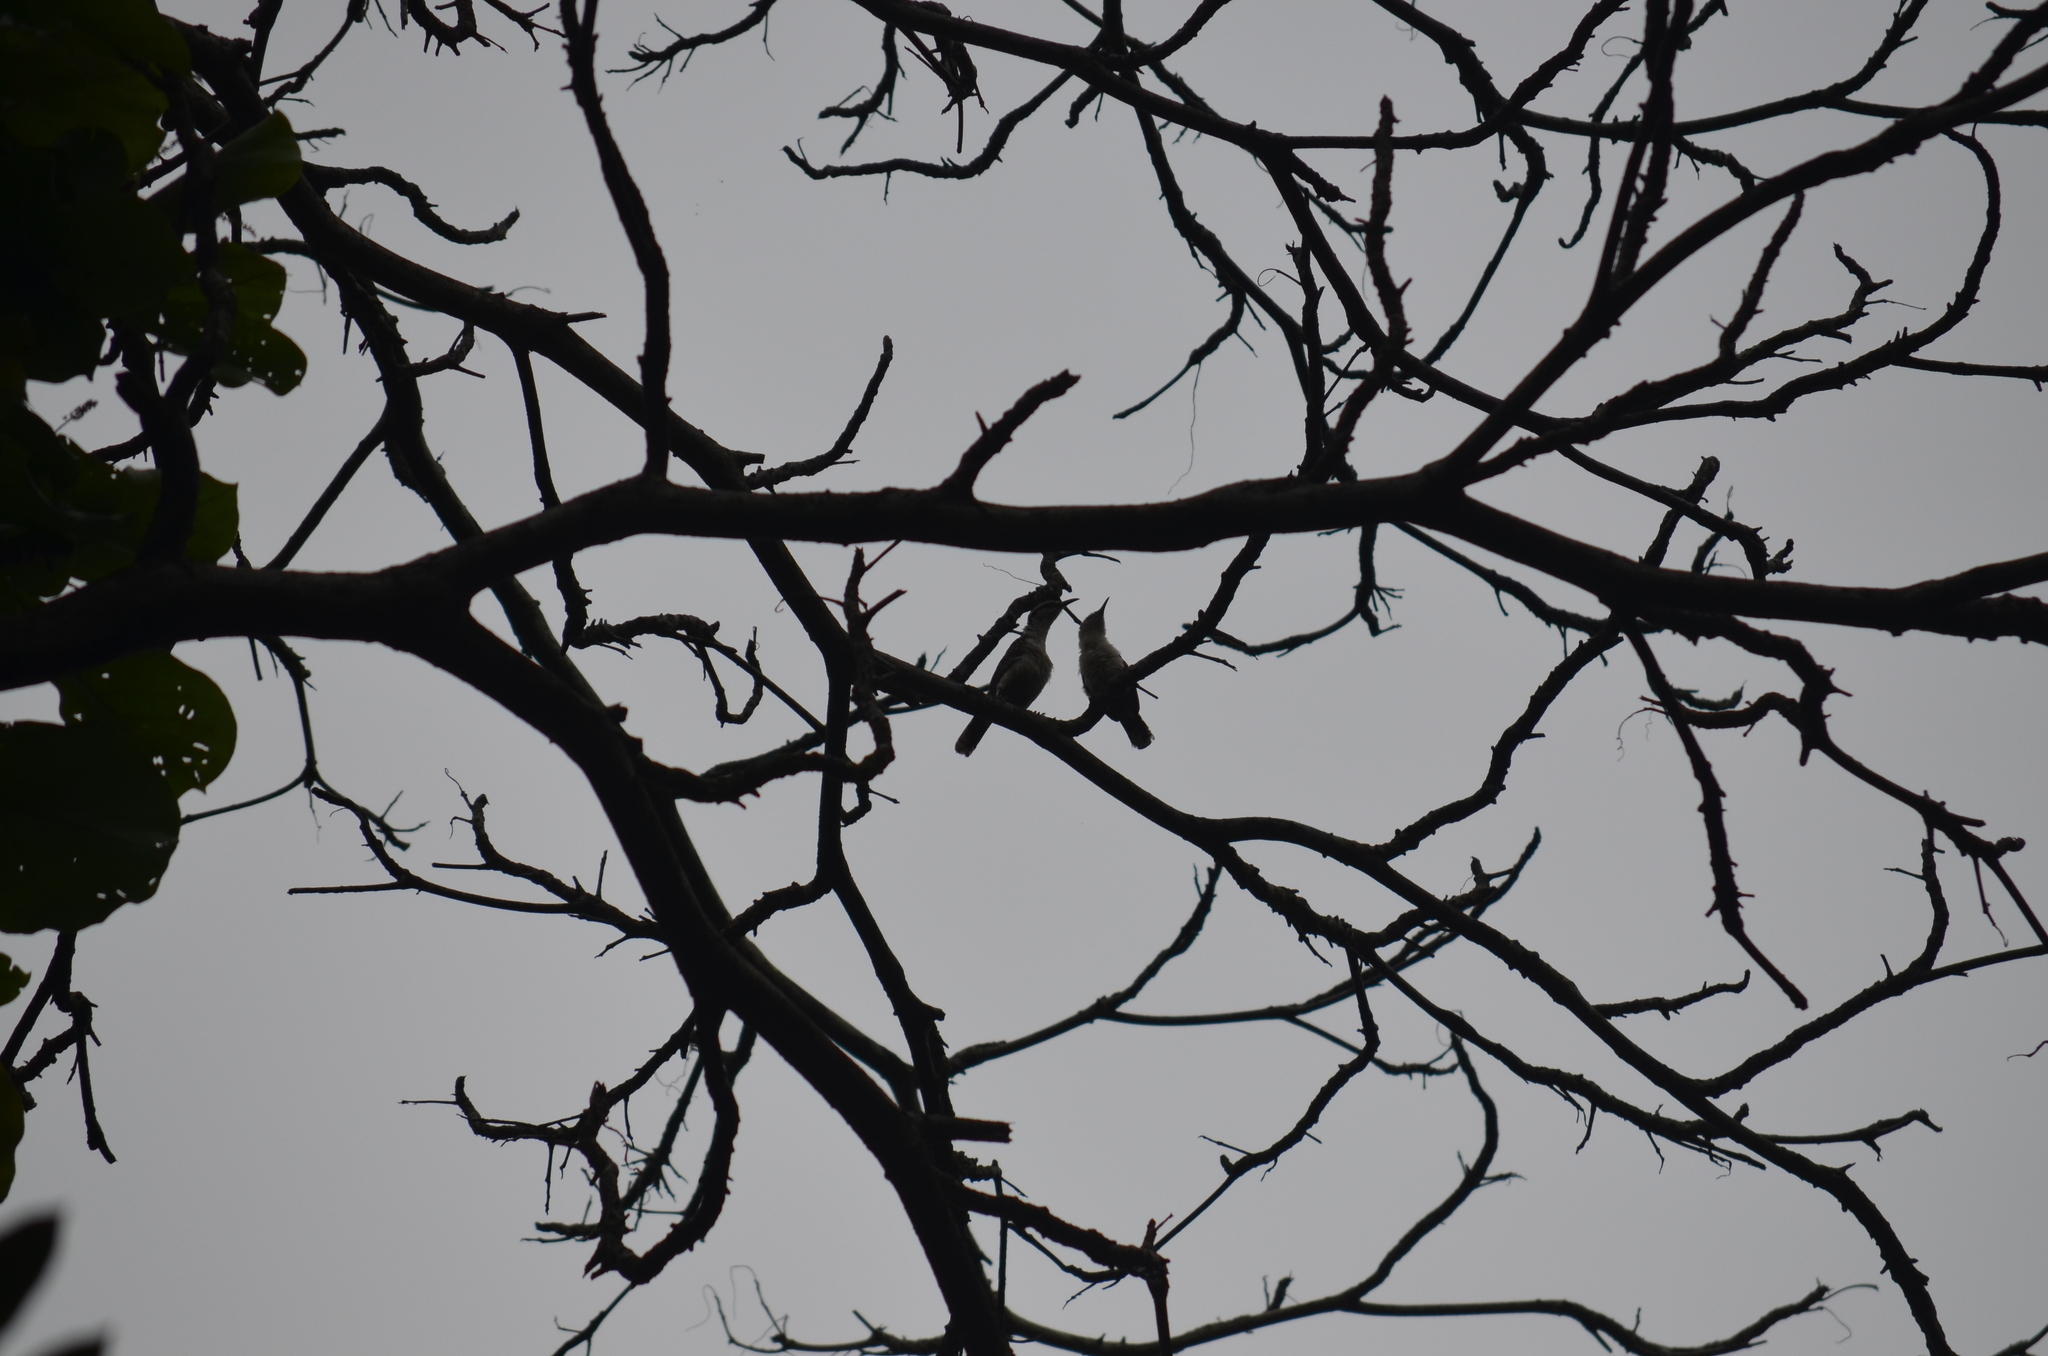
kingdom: Animalia
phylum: Chordata
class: Aves
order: Passeriformes
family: Troglodytidae
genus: Campylorhynchus
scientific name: Campylorhynchus rufinucha
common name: Rufous-naped wren
